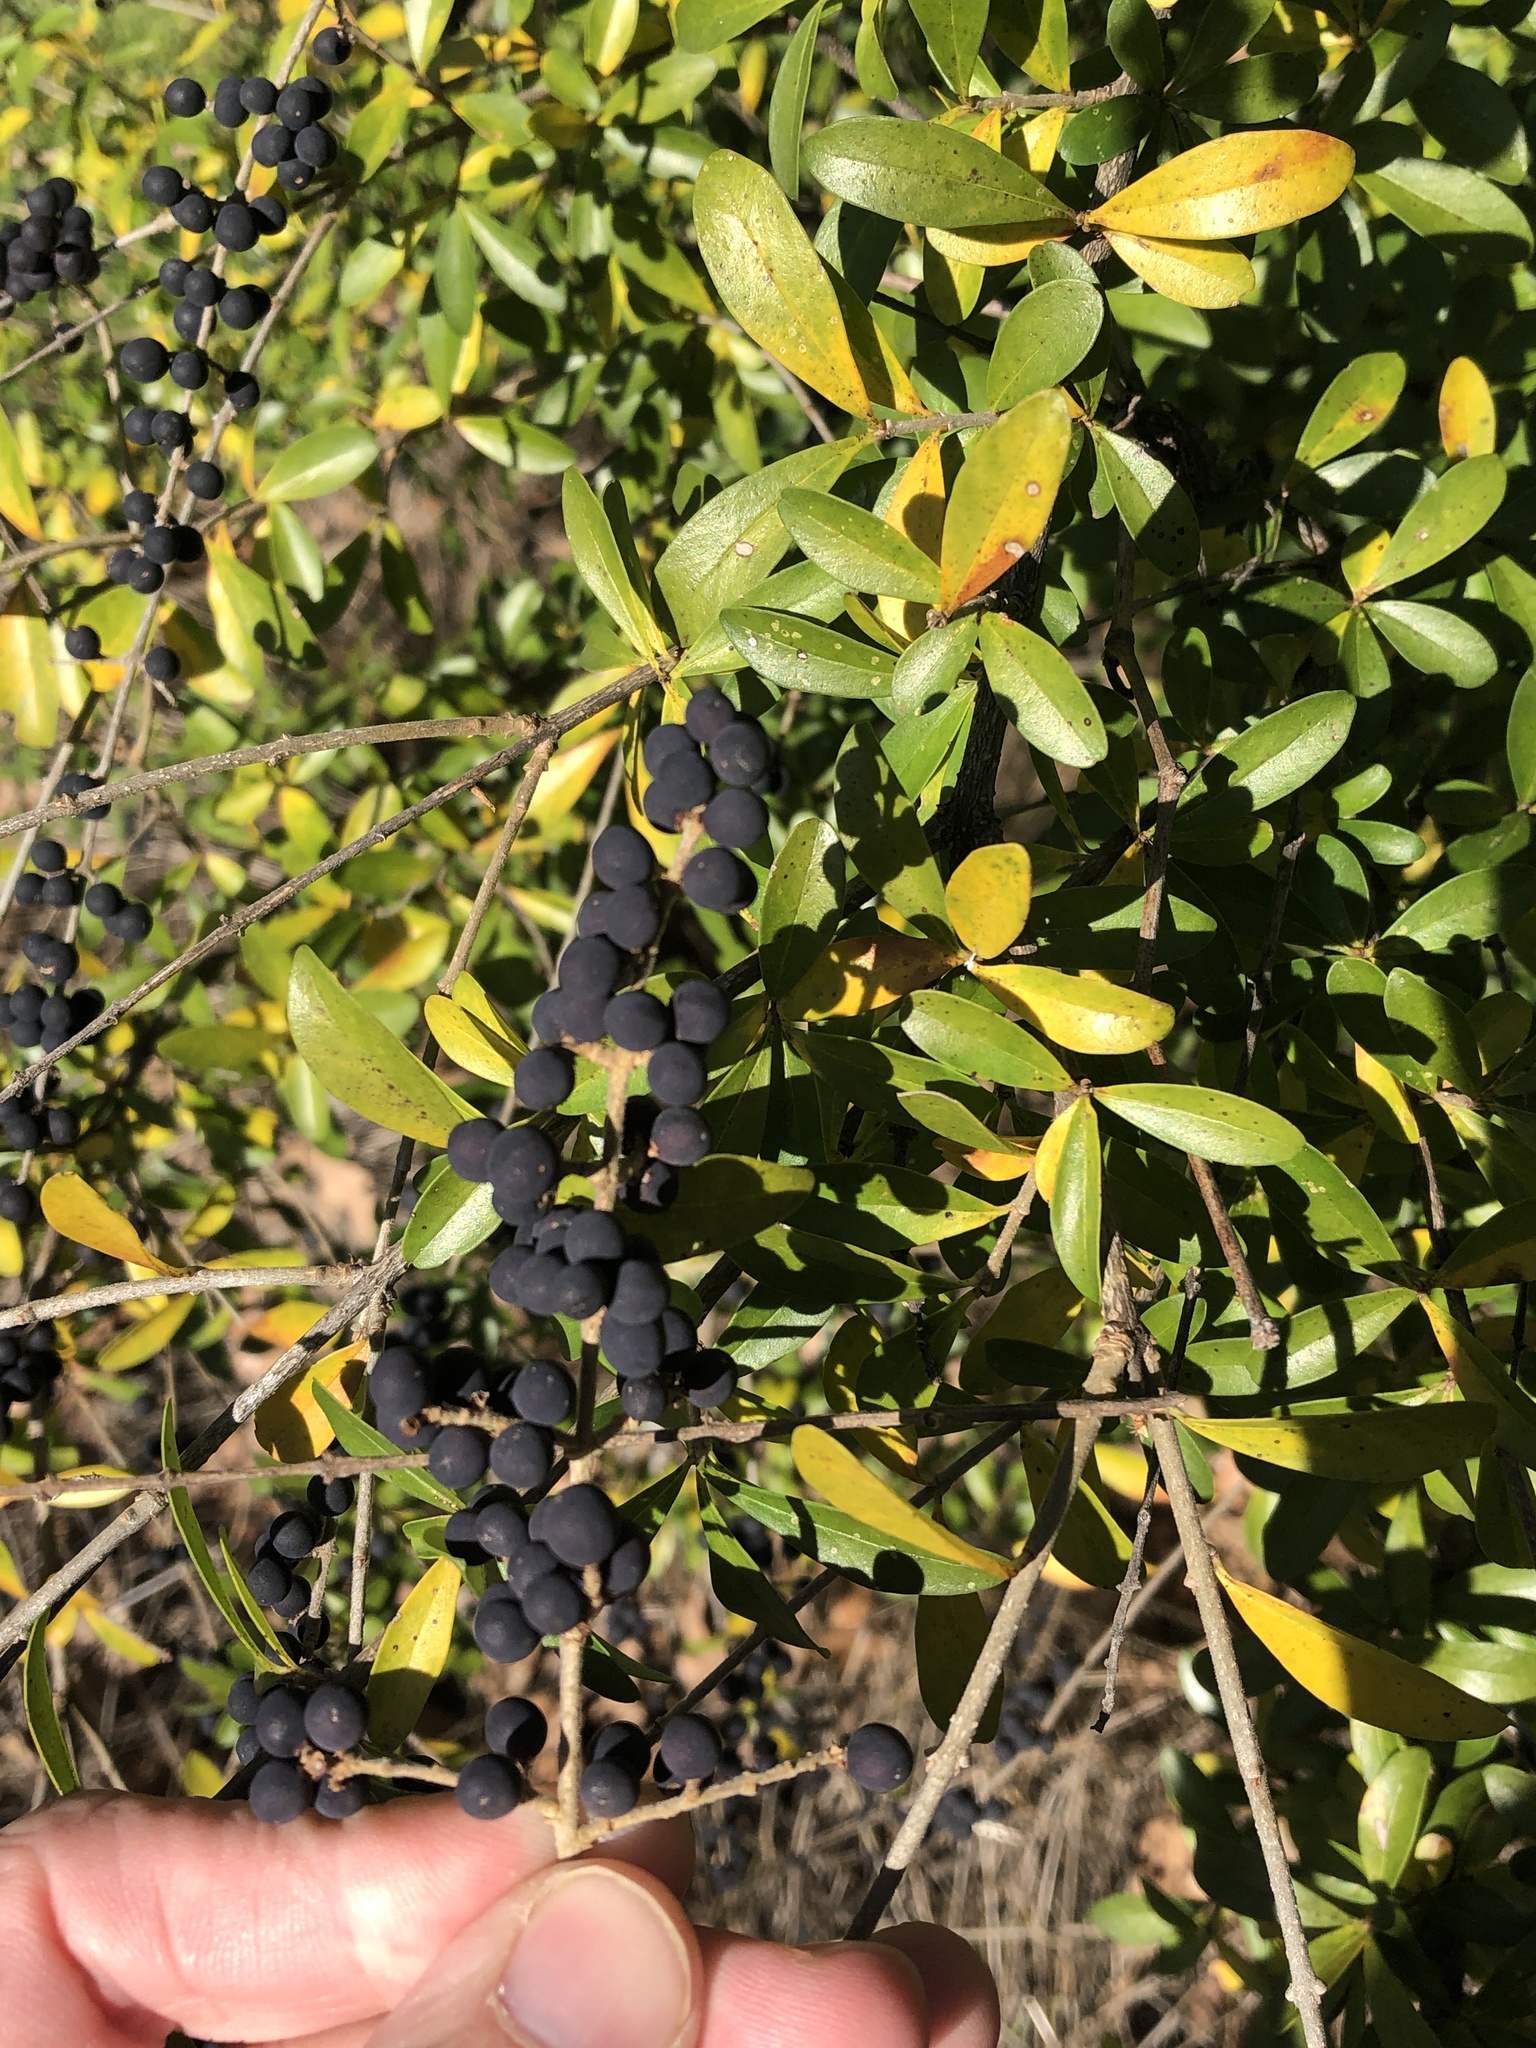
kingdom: Plantae
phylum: Tracheophyta
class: Magnoliopsida
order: Lamiales
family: Oleaceae
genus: Ligustrum
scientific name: Ligustrum quihoui
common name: Waxyleaf privet
